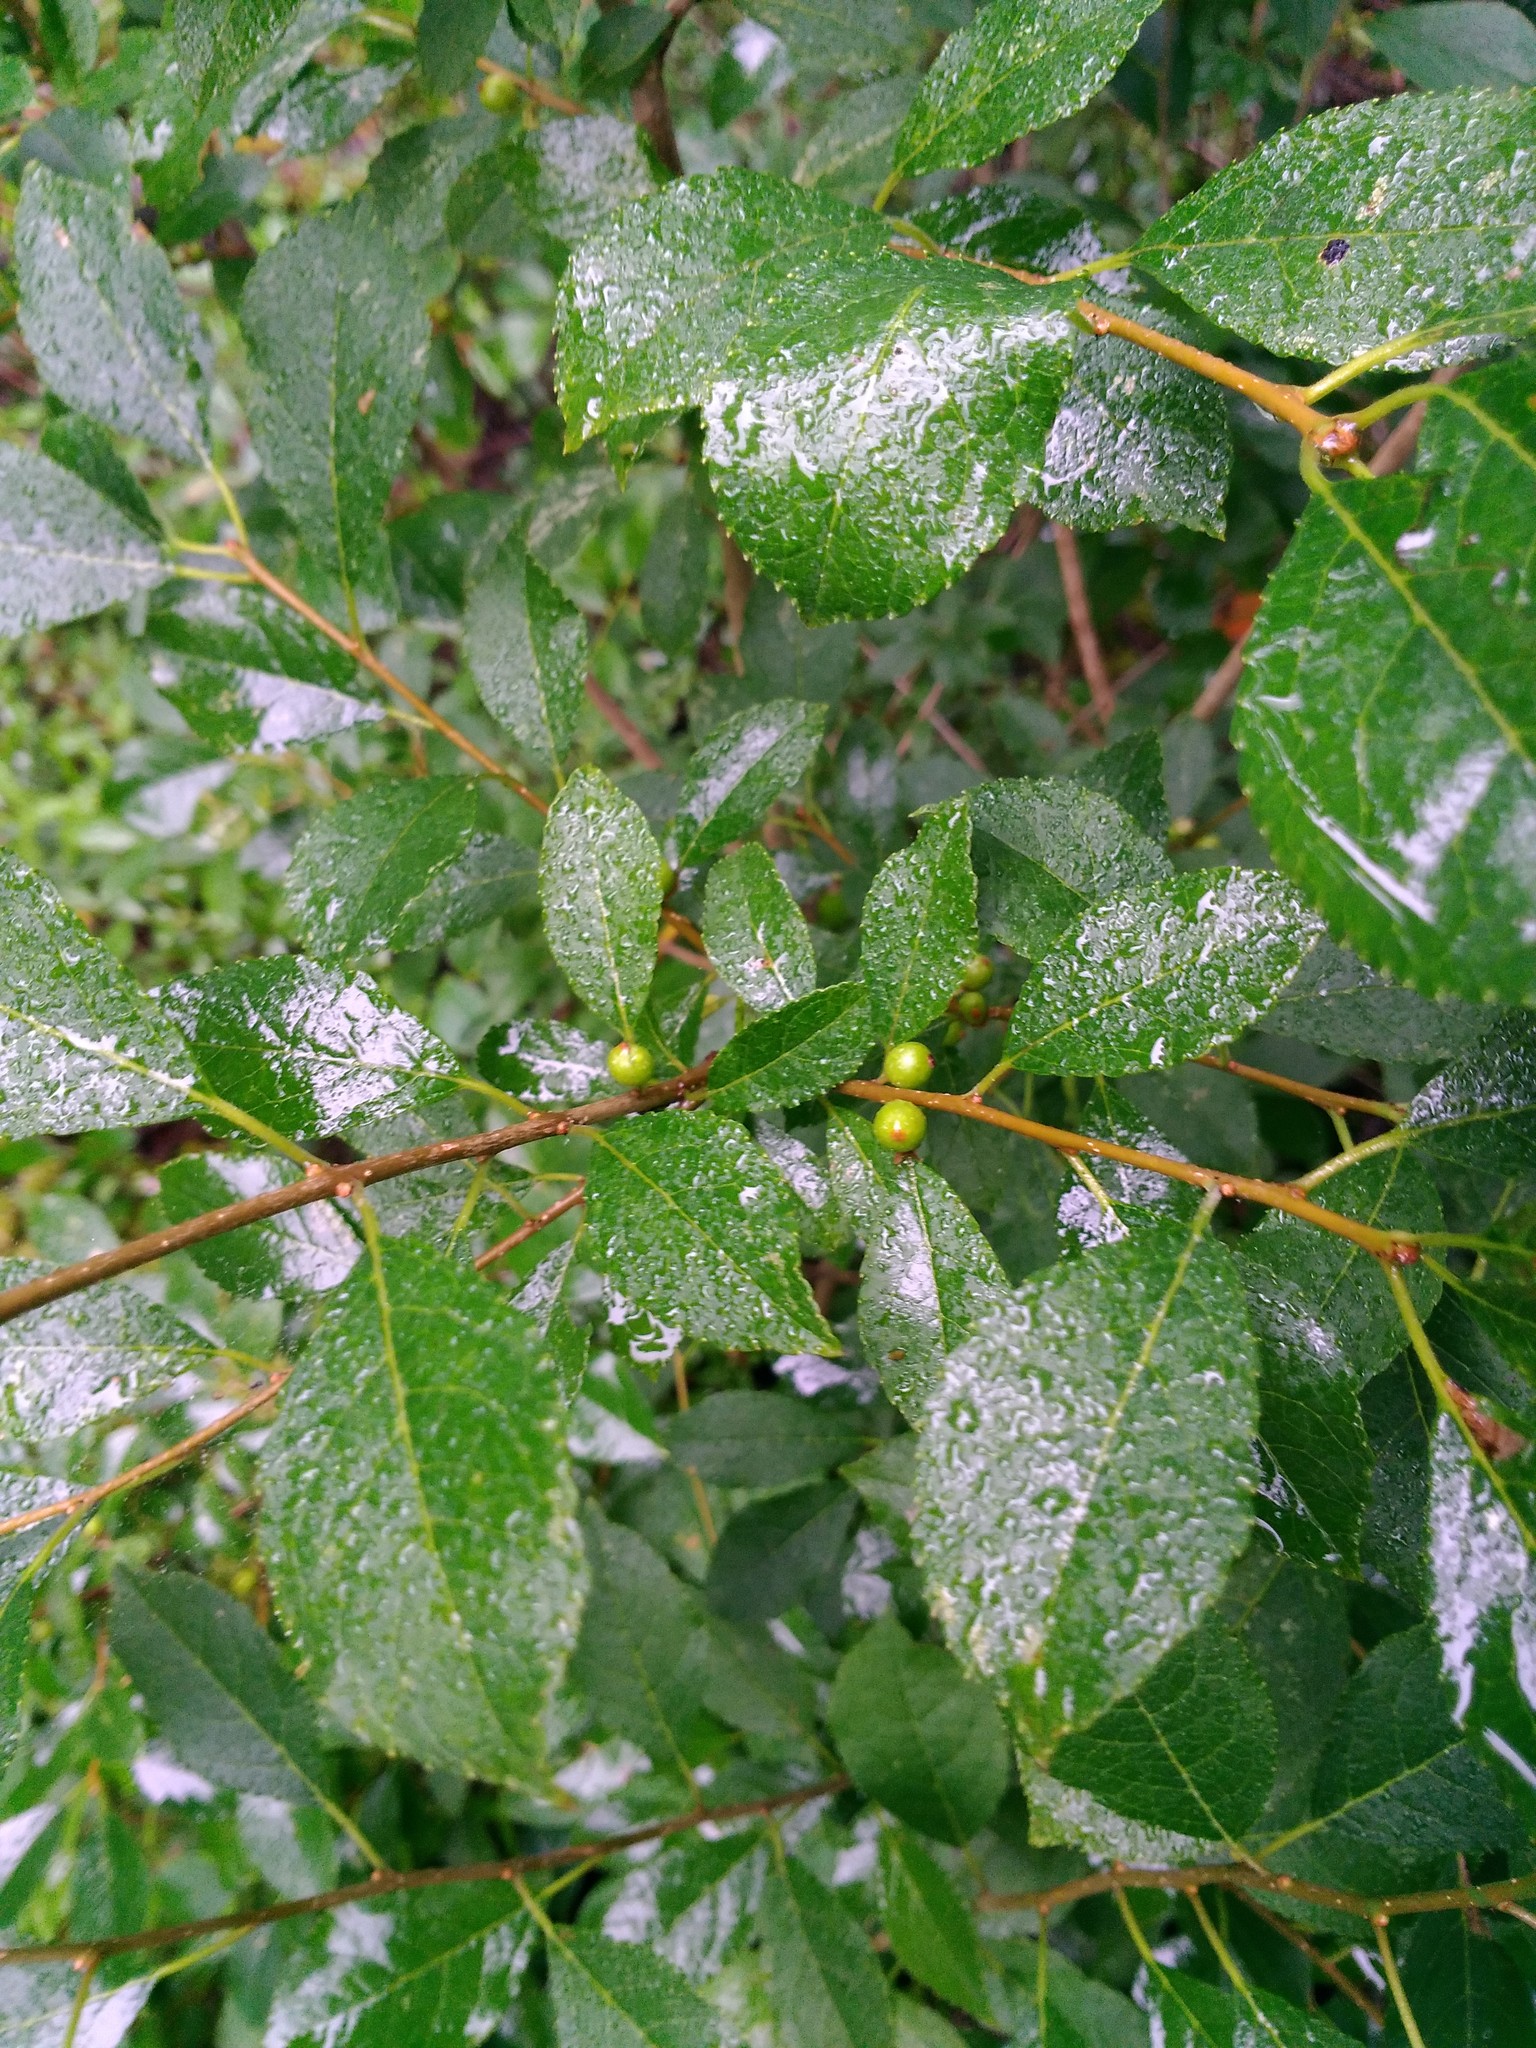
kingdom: Plantae
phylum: Tracheophyta
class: Magnoliopsida
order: Aquifoliales
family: Aquifoliaceae
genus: Ilex
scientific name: Ilex verticillata
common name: Virginia winterberry
